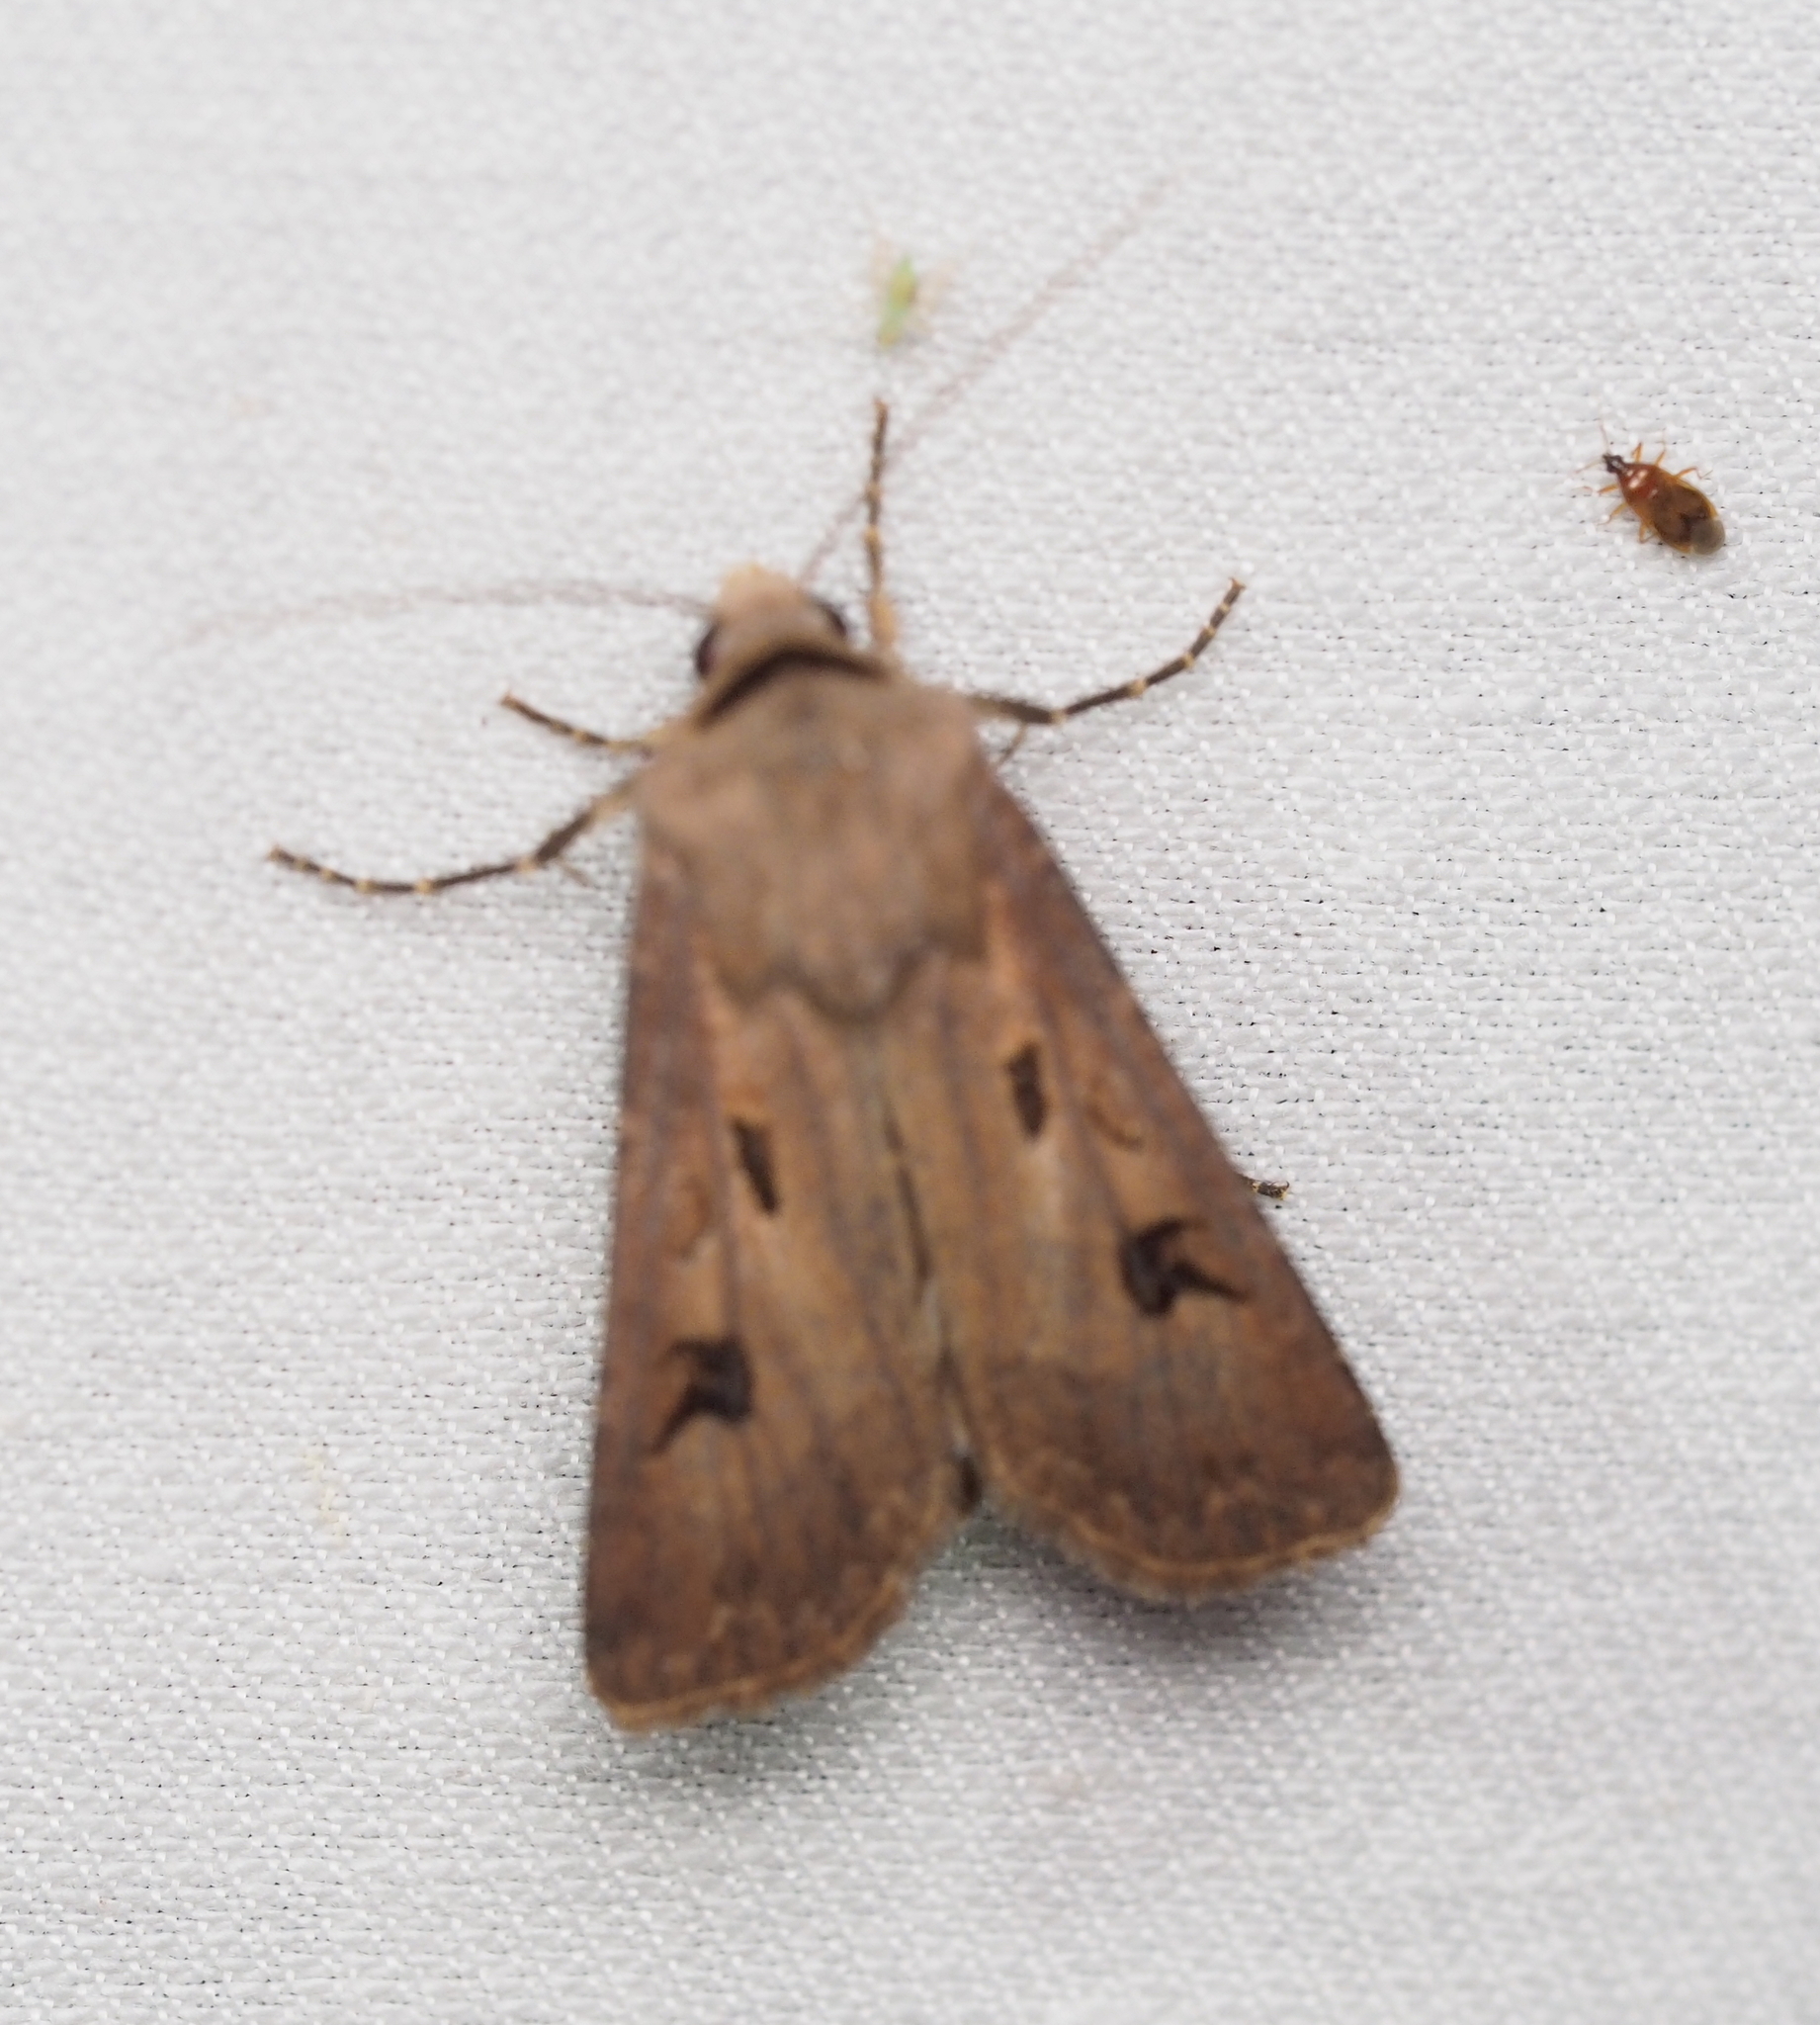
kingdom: Animalia
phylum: Arthropoda
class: Insecta
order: Lepidoptera
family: Noctuidae
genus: Agrotis
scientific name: Agrotis exclamationis
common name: Heart and dart
